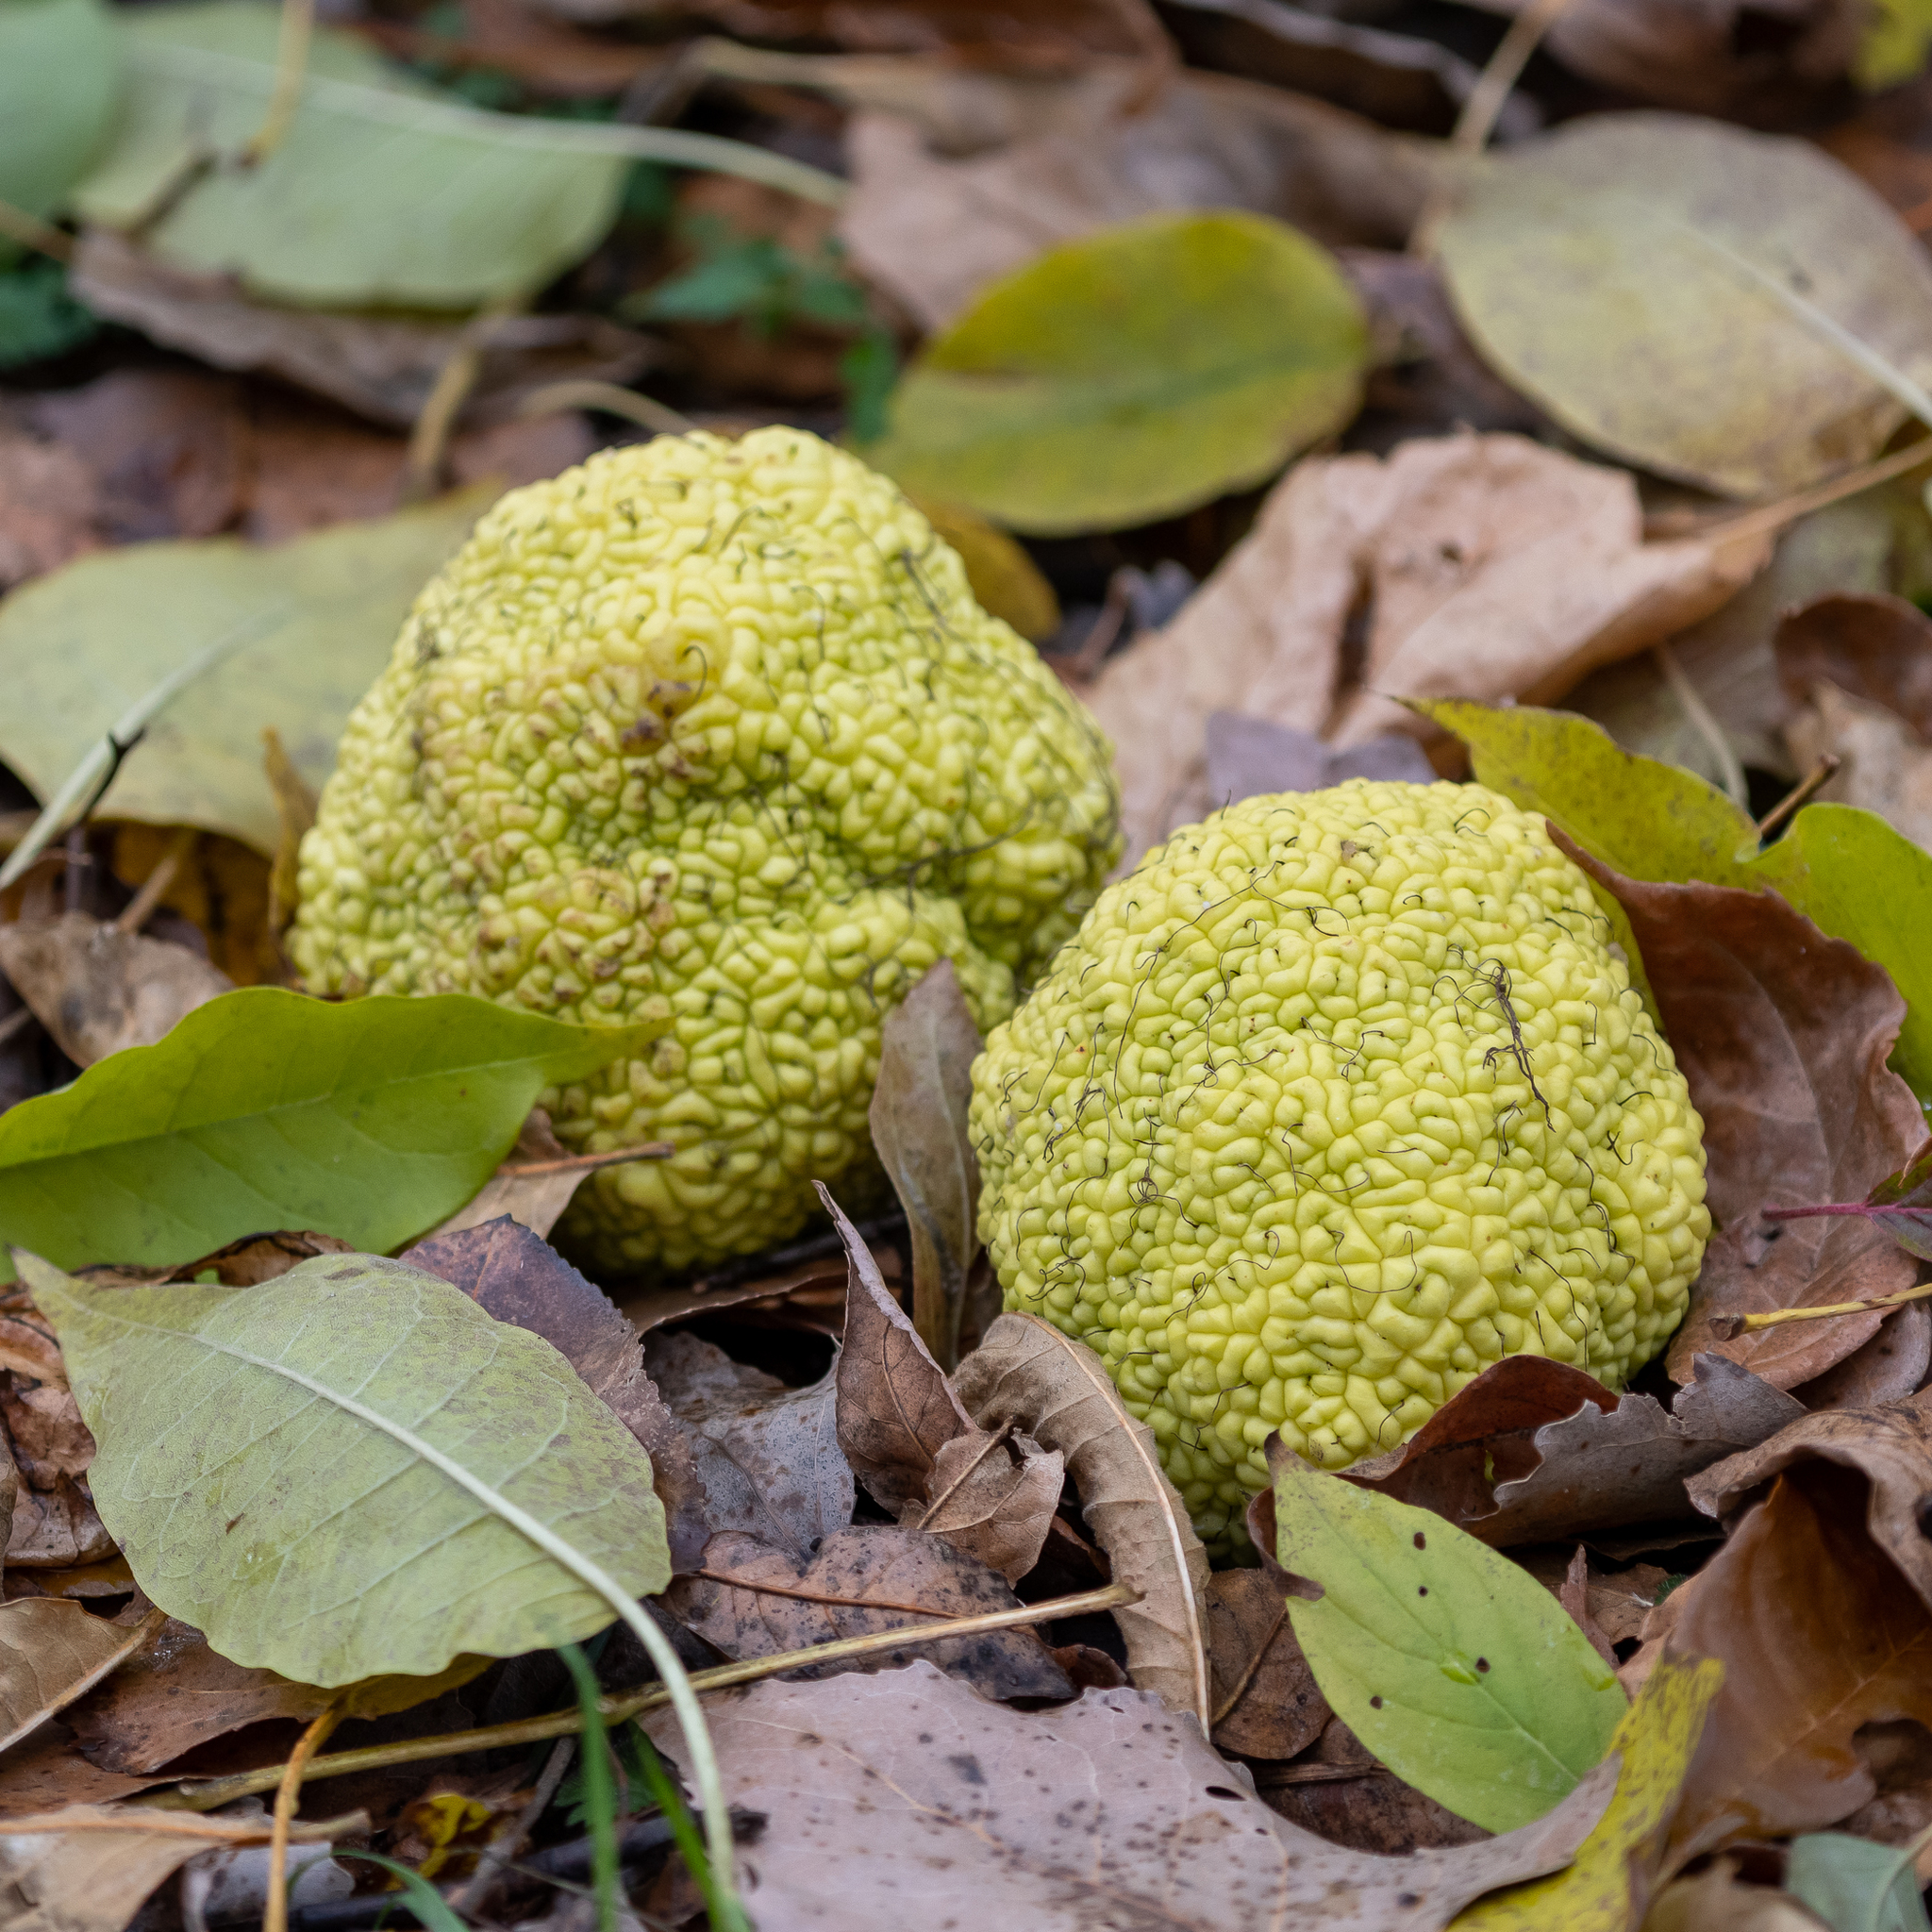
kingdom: Plantae
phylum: Tracheophyta
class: Magnoliopsida
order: Rosales
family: Moraceae
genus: Maclura
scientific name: Maclura pomifera
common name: Osage-orange
